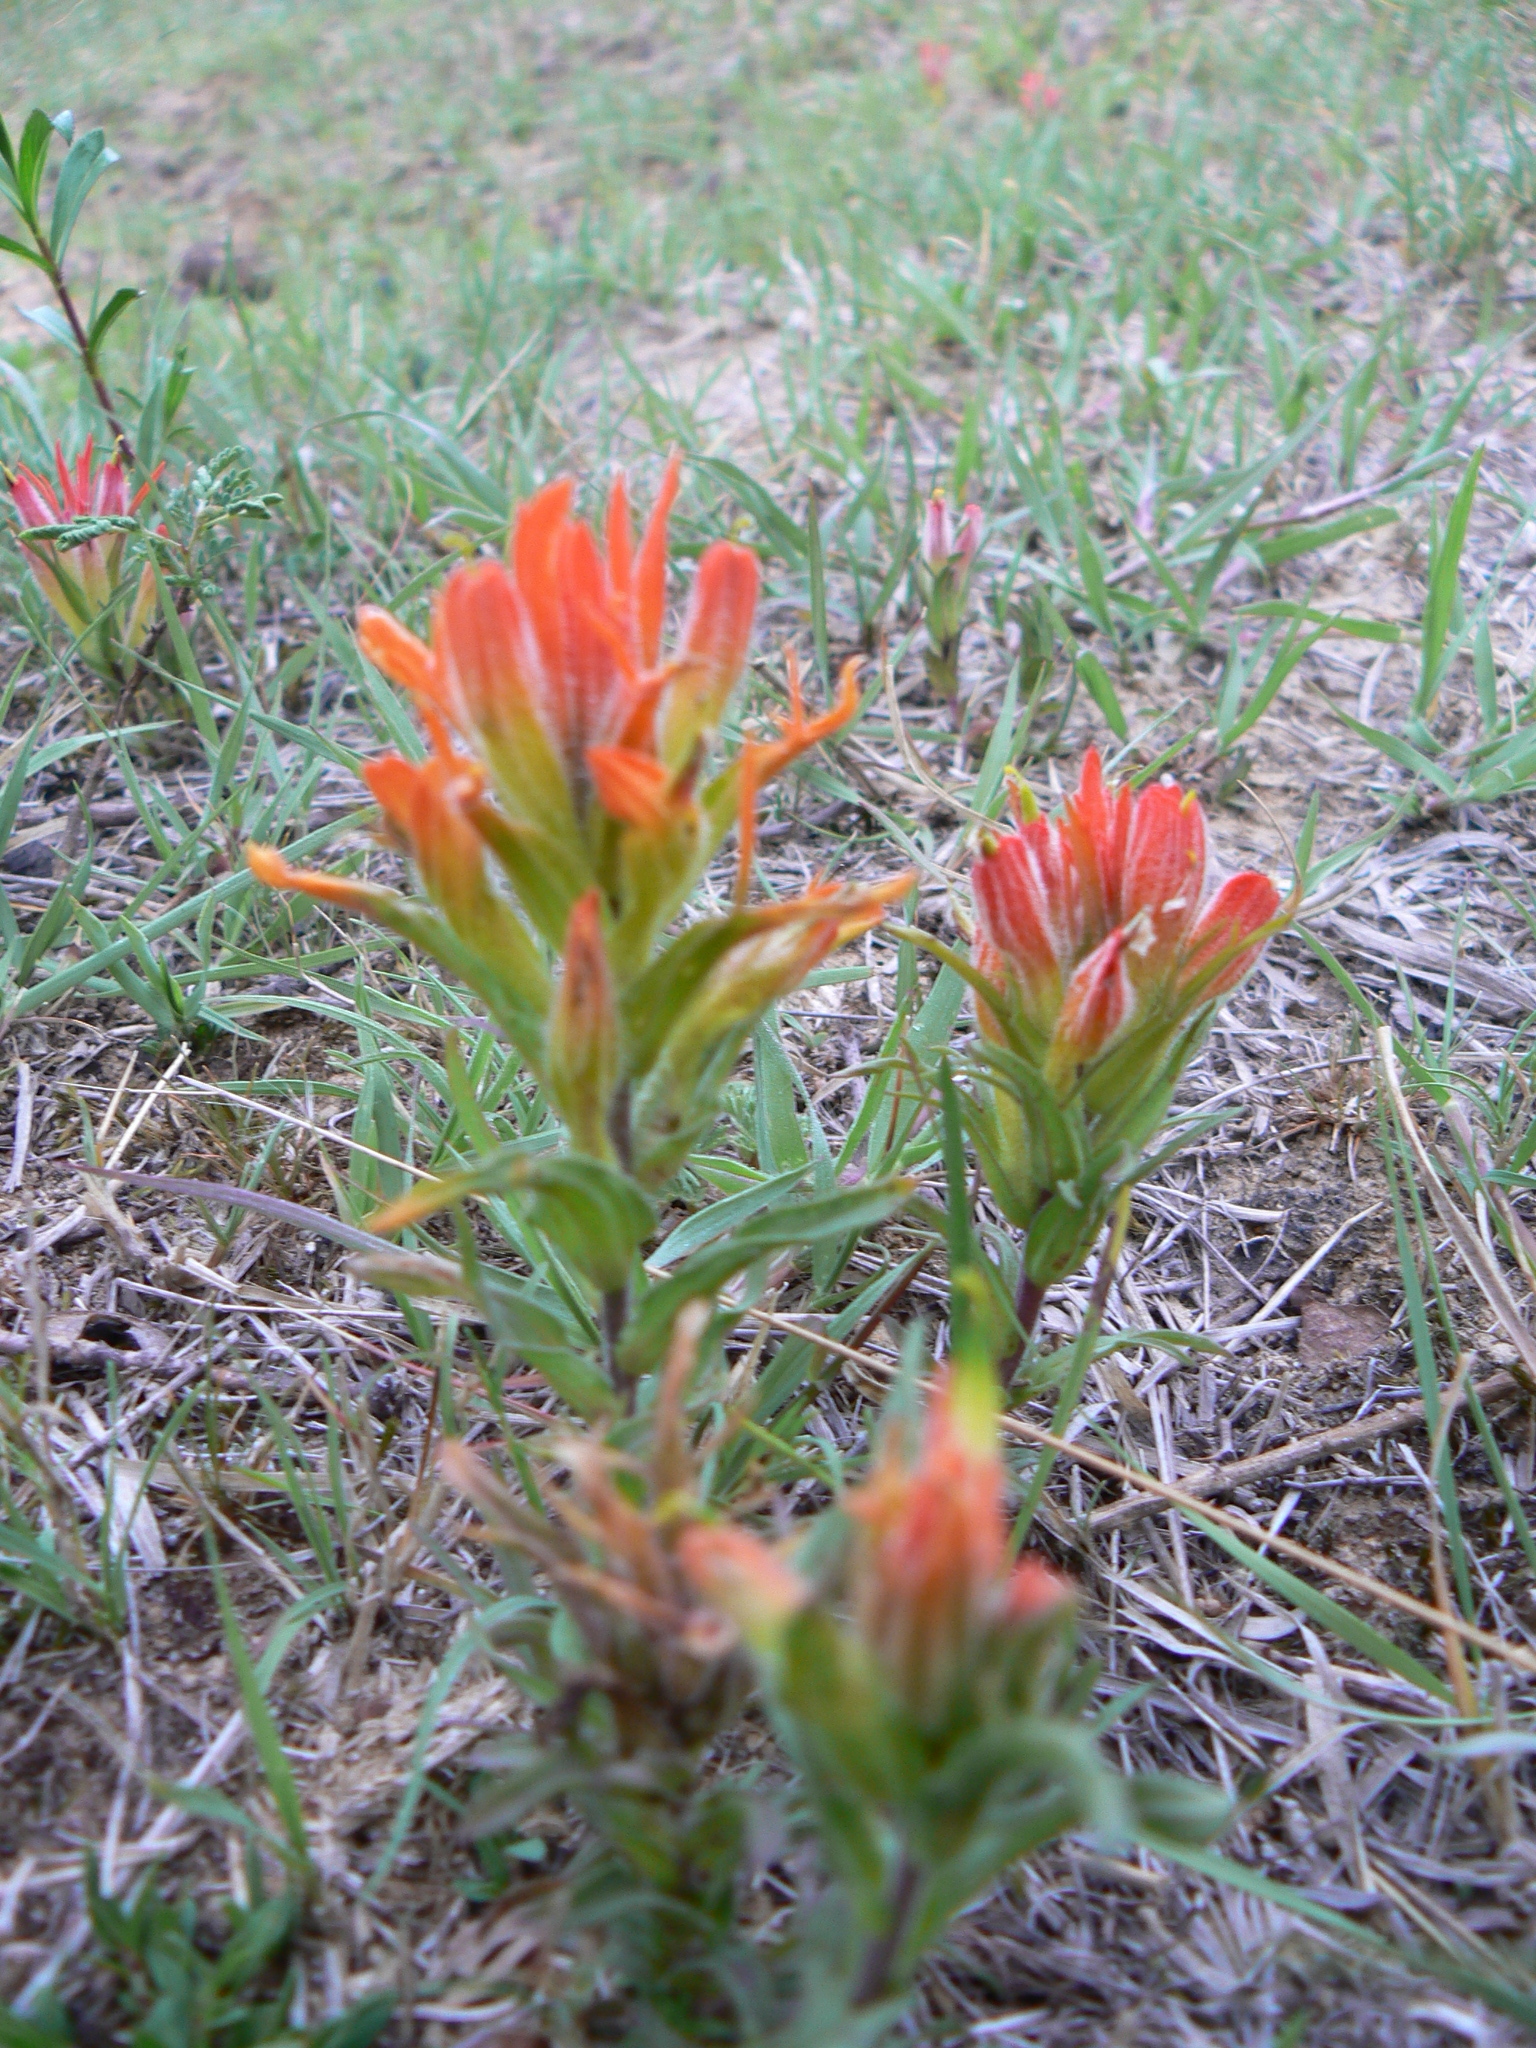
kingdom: Plantae
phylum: Tracheophyta
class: Magnoliopsida
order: Lamiales
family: Orobanchaceae
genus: Castilleja
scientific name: Castilleja moranensis
